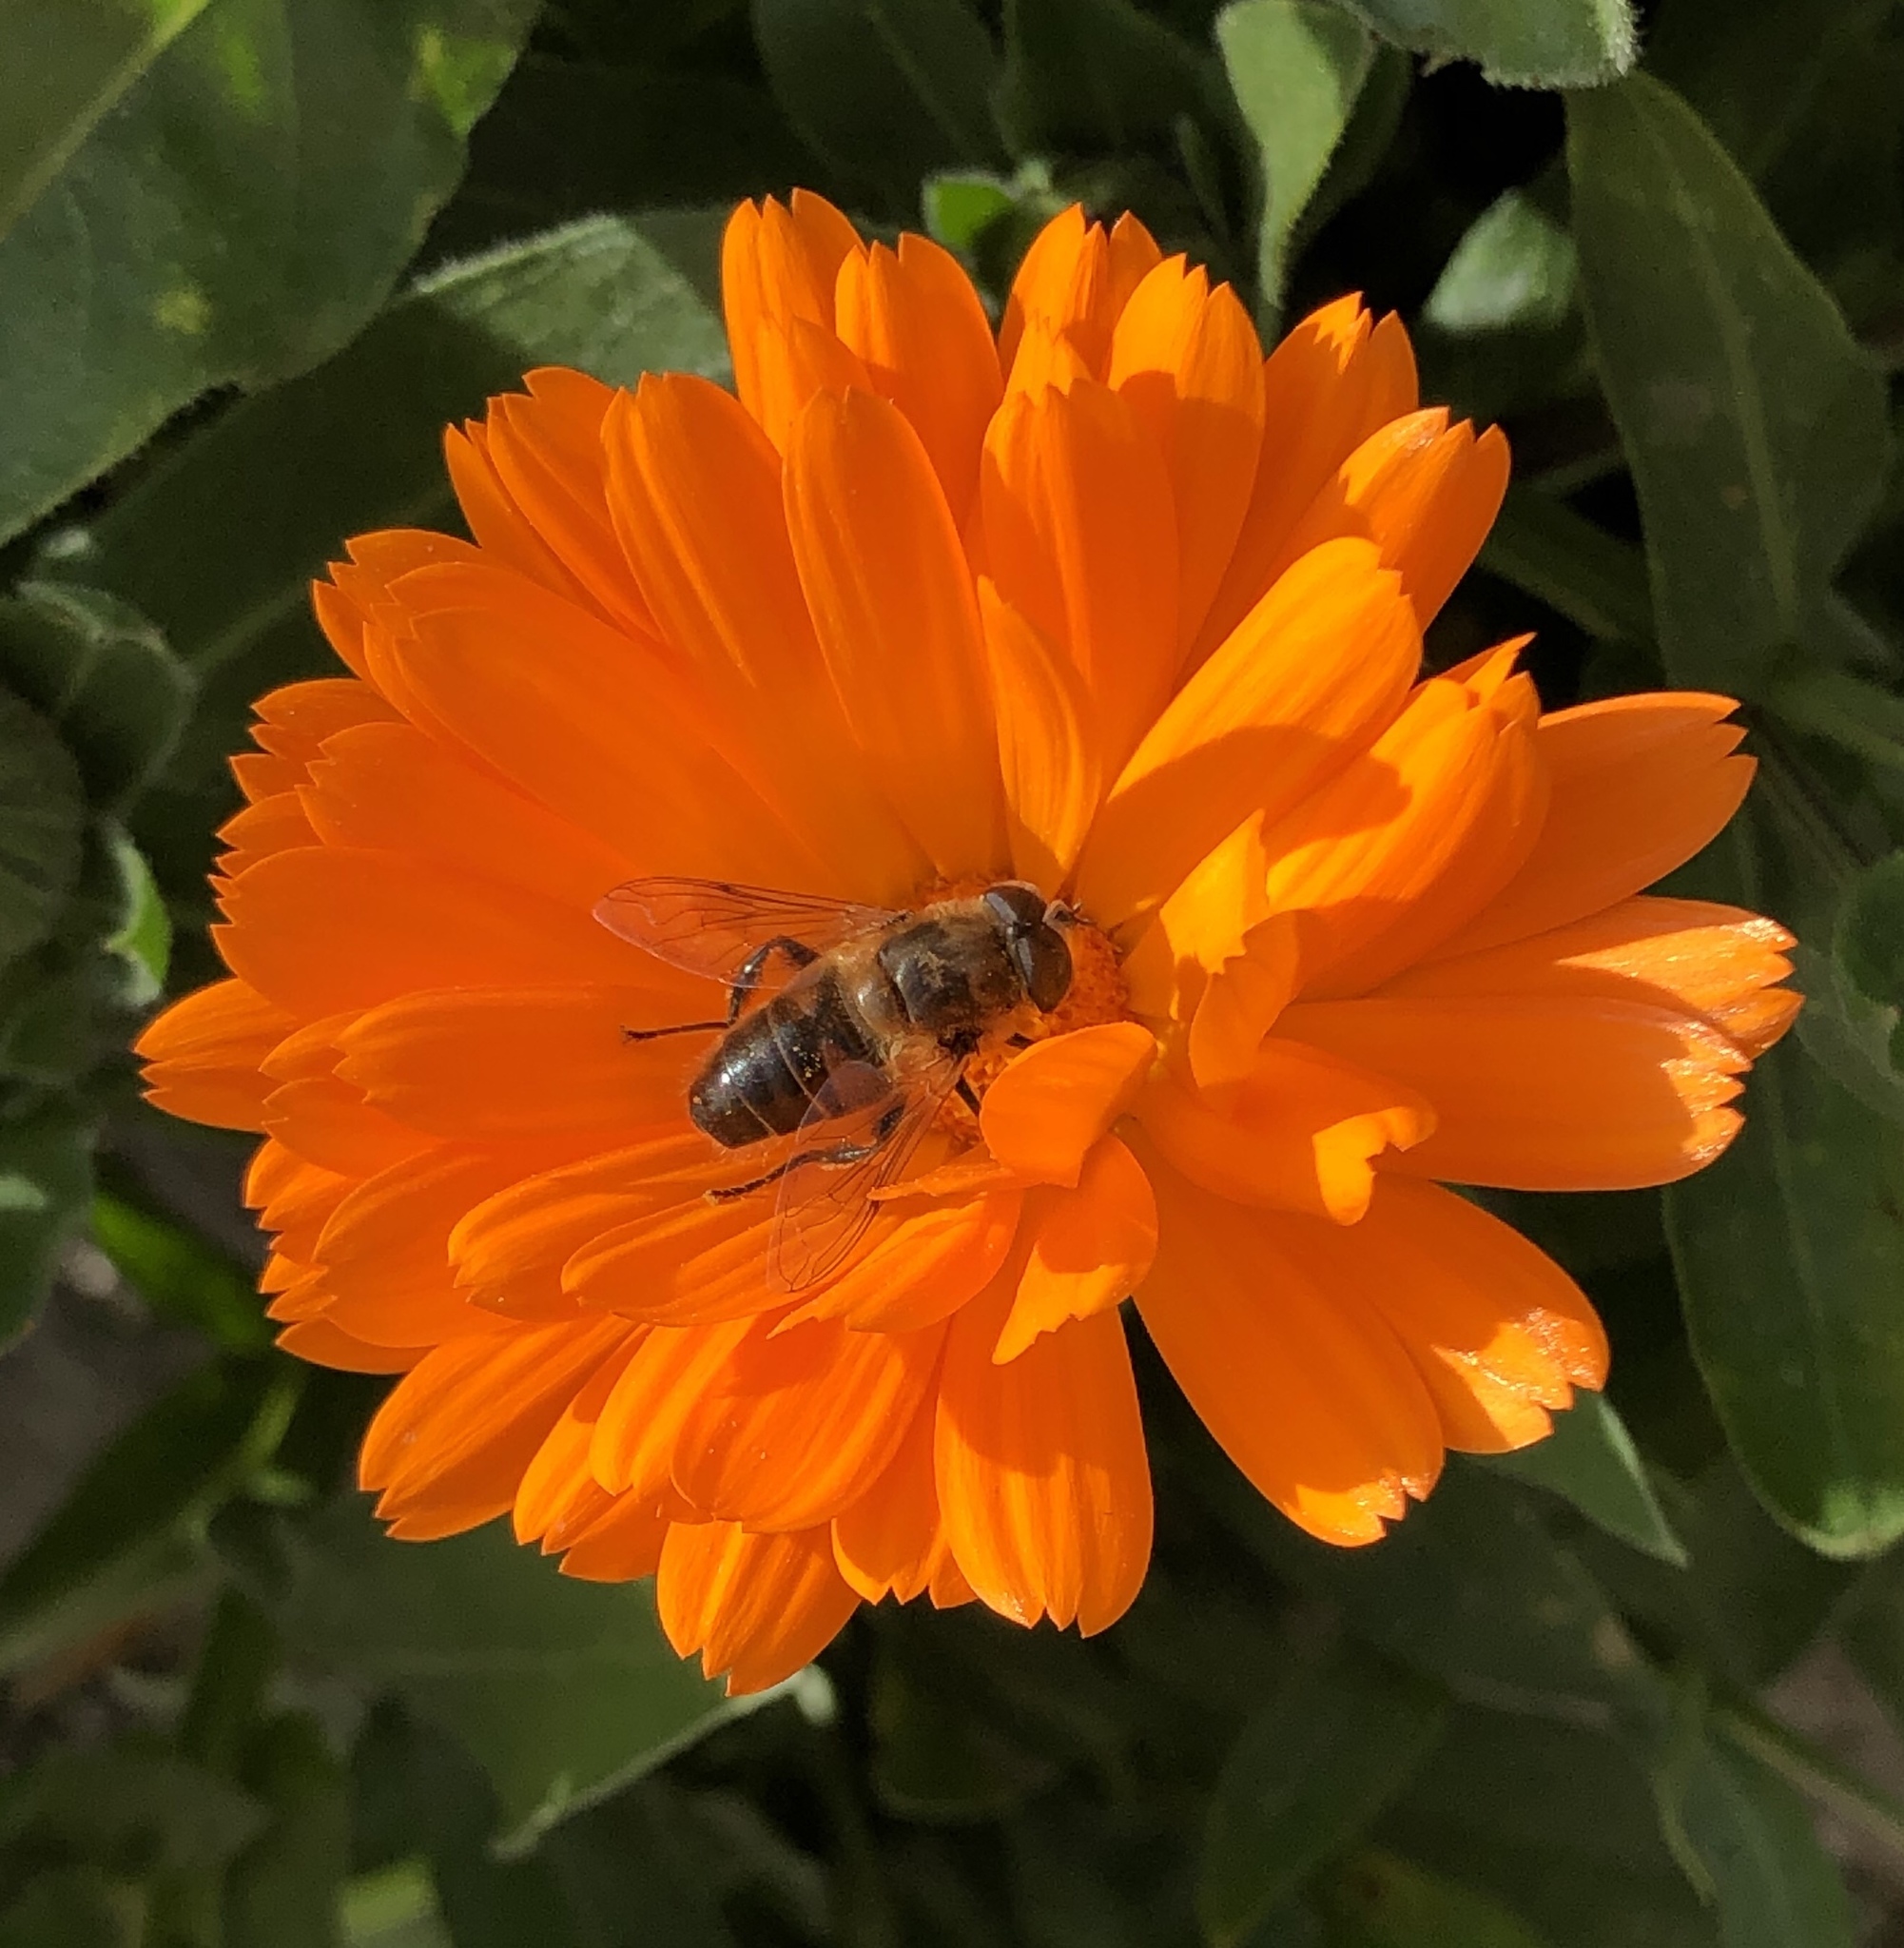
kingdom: Animalia
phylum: Arthropoda
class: Insecta
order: Diptera
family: Syrphidae
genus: Eristalis
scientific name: Eristalis tenax
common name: Drone fly
